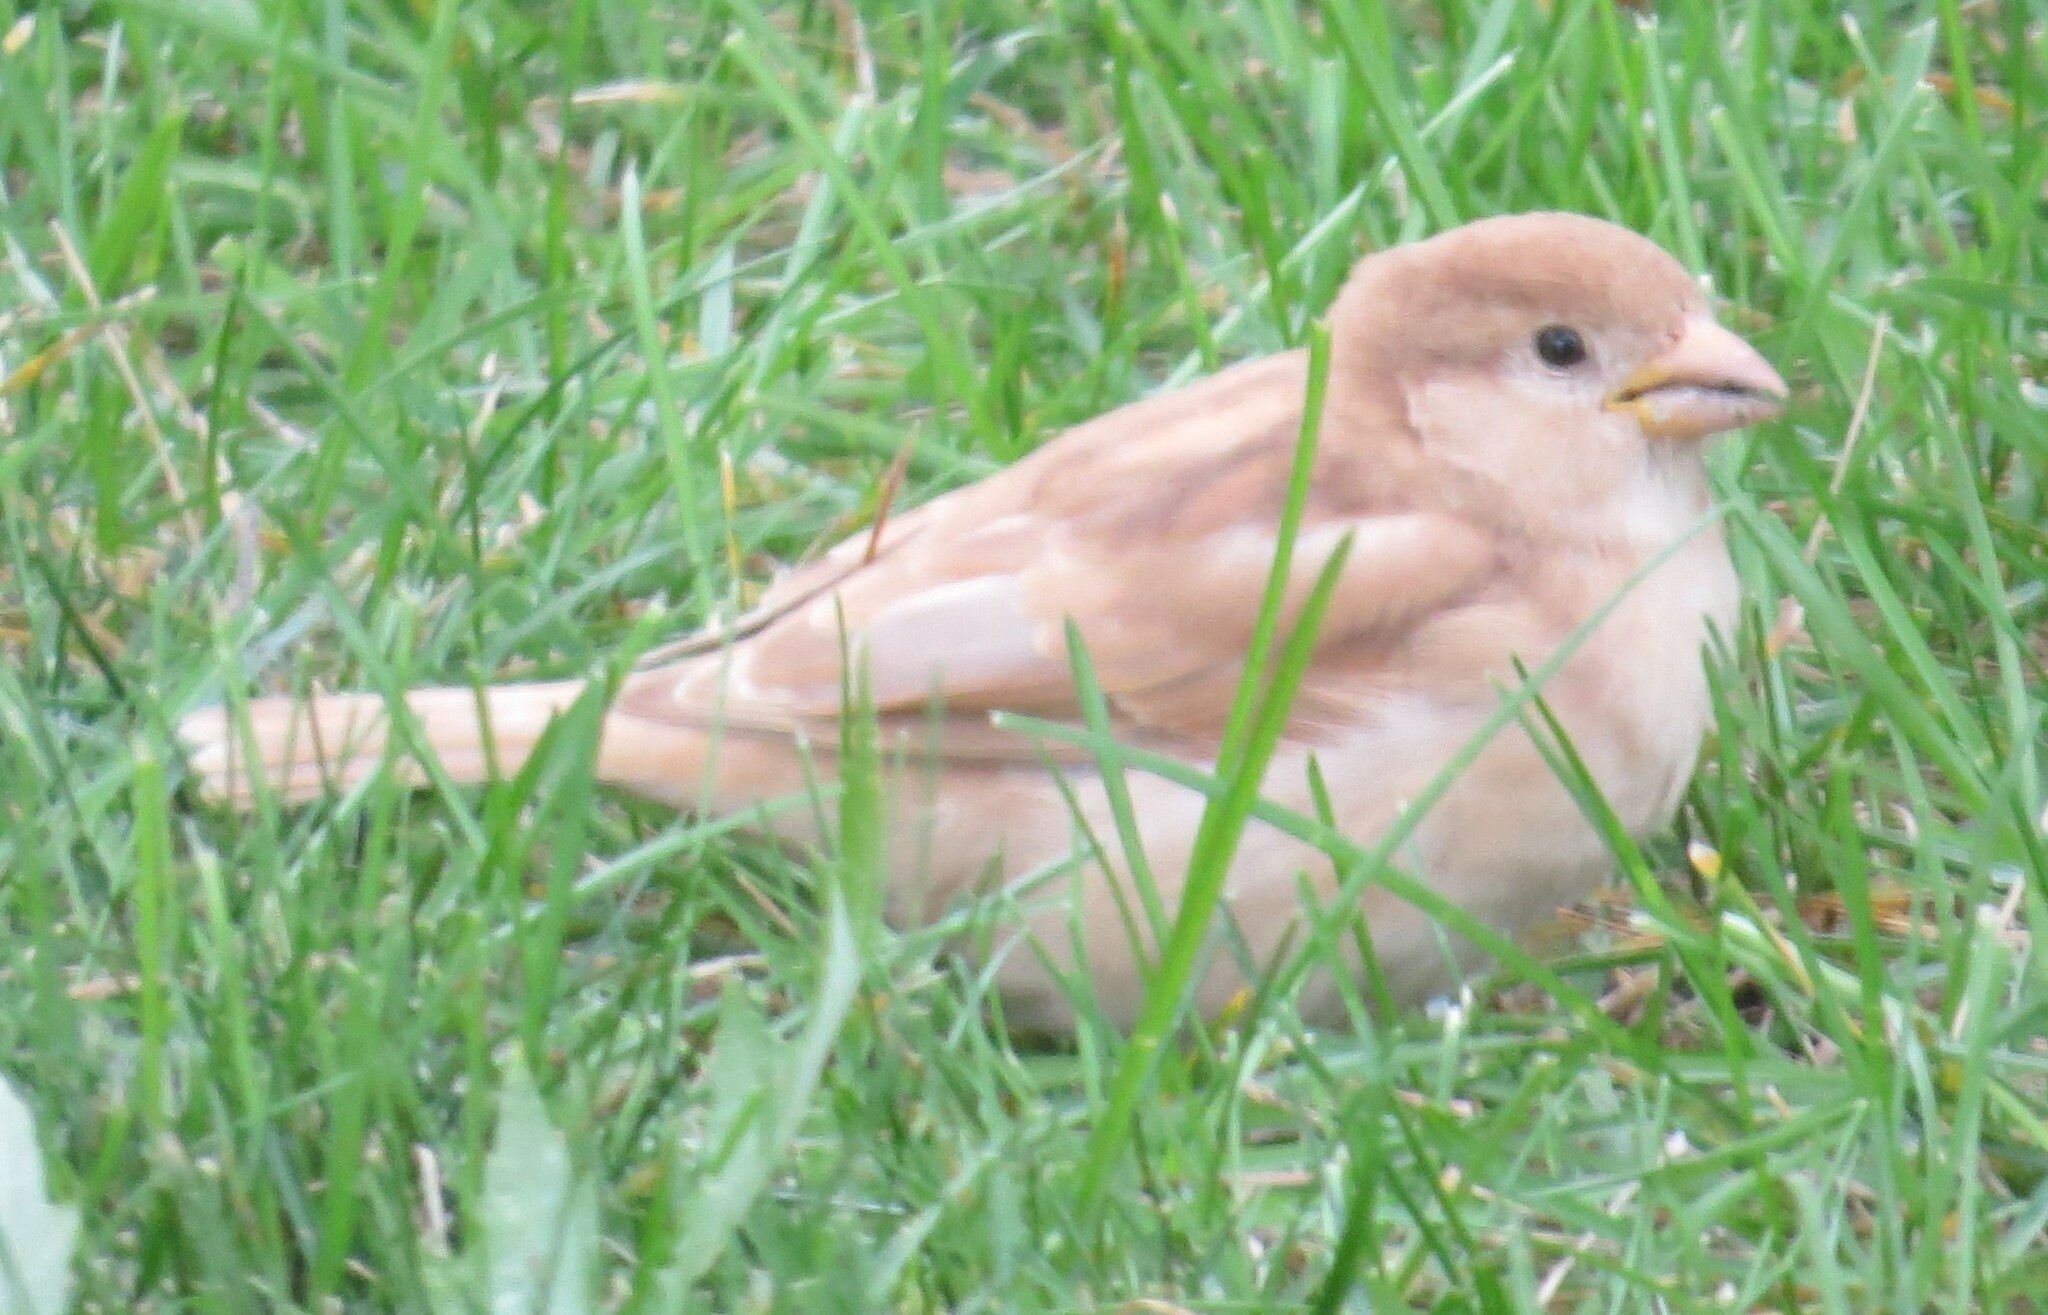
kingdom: Animalia
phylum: Chordata
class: Aves
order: Passeriformes
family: Passeridae
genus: Passer
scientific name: Passer domesticus
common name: House sparrow
